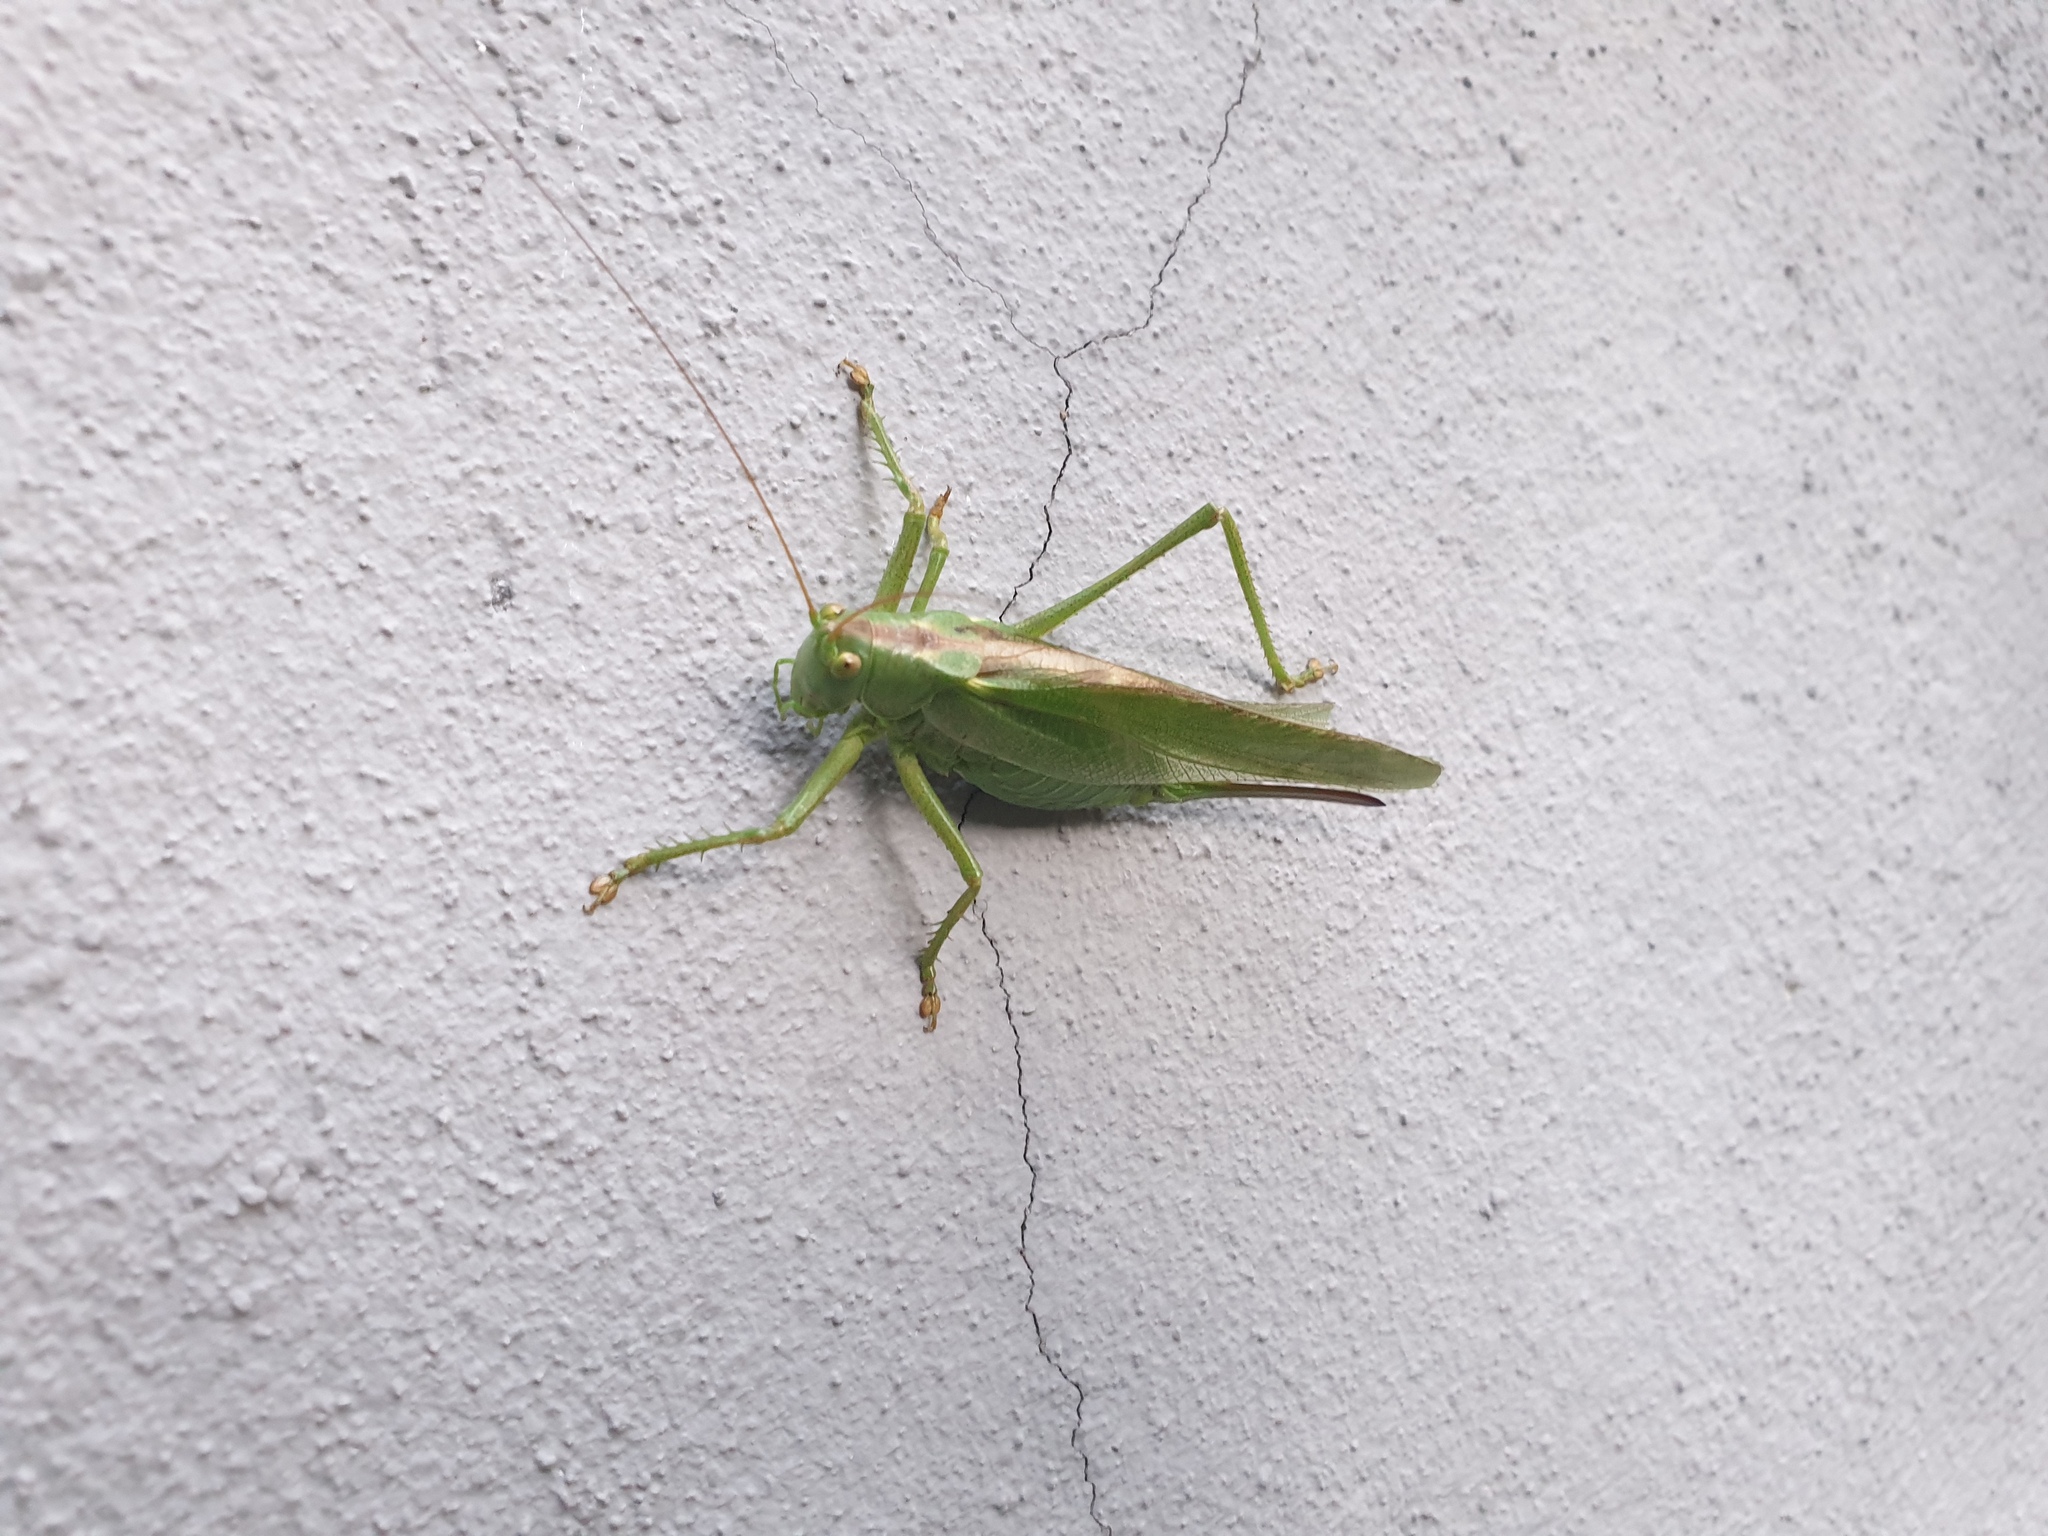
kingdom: Animalia
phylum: Arthropoda
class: Insecta
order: Orthoptera
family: Tettigoniidae
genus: Tettigonia
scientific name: Tettigonia viridissima
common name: Great green bush-cricket
